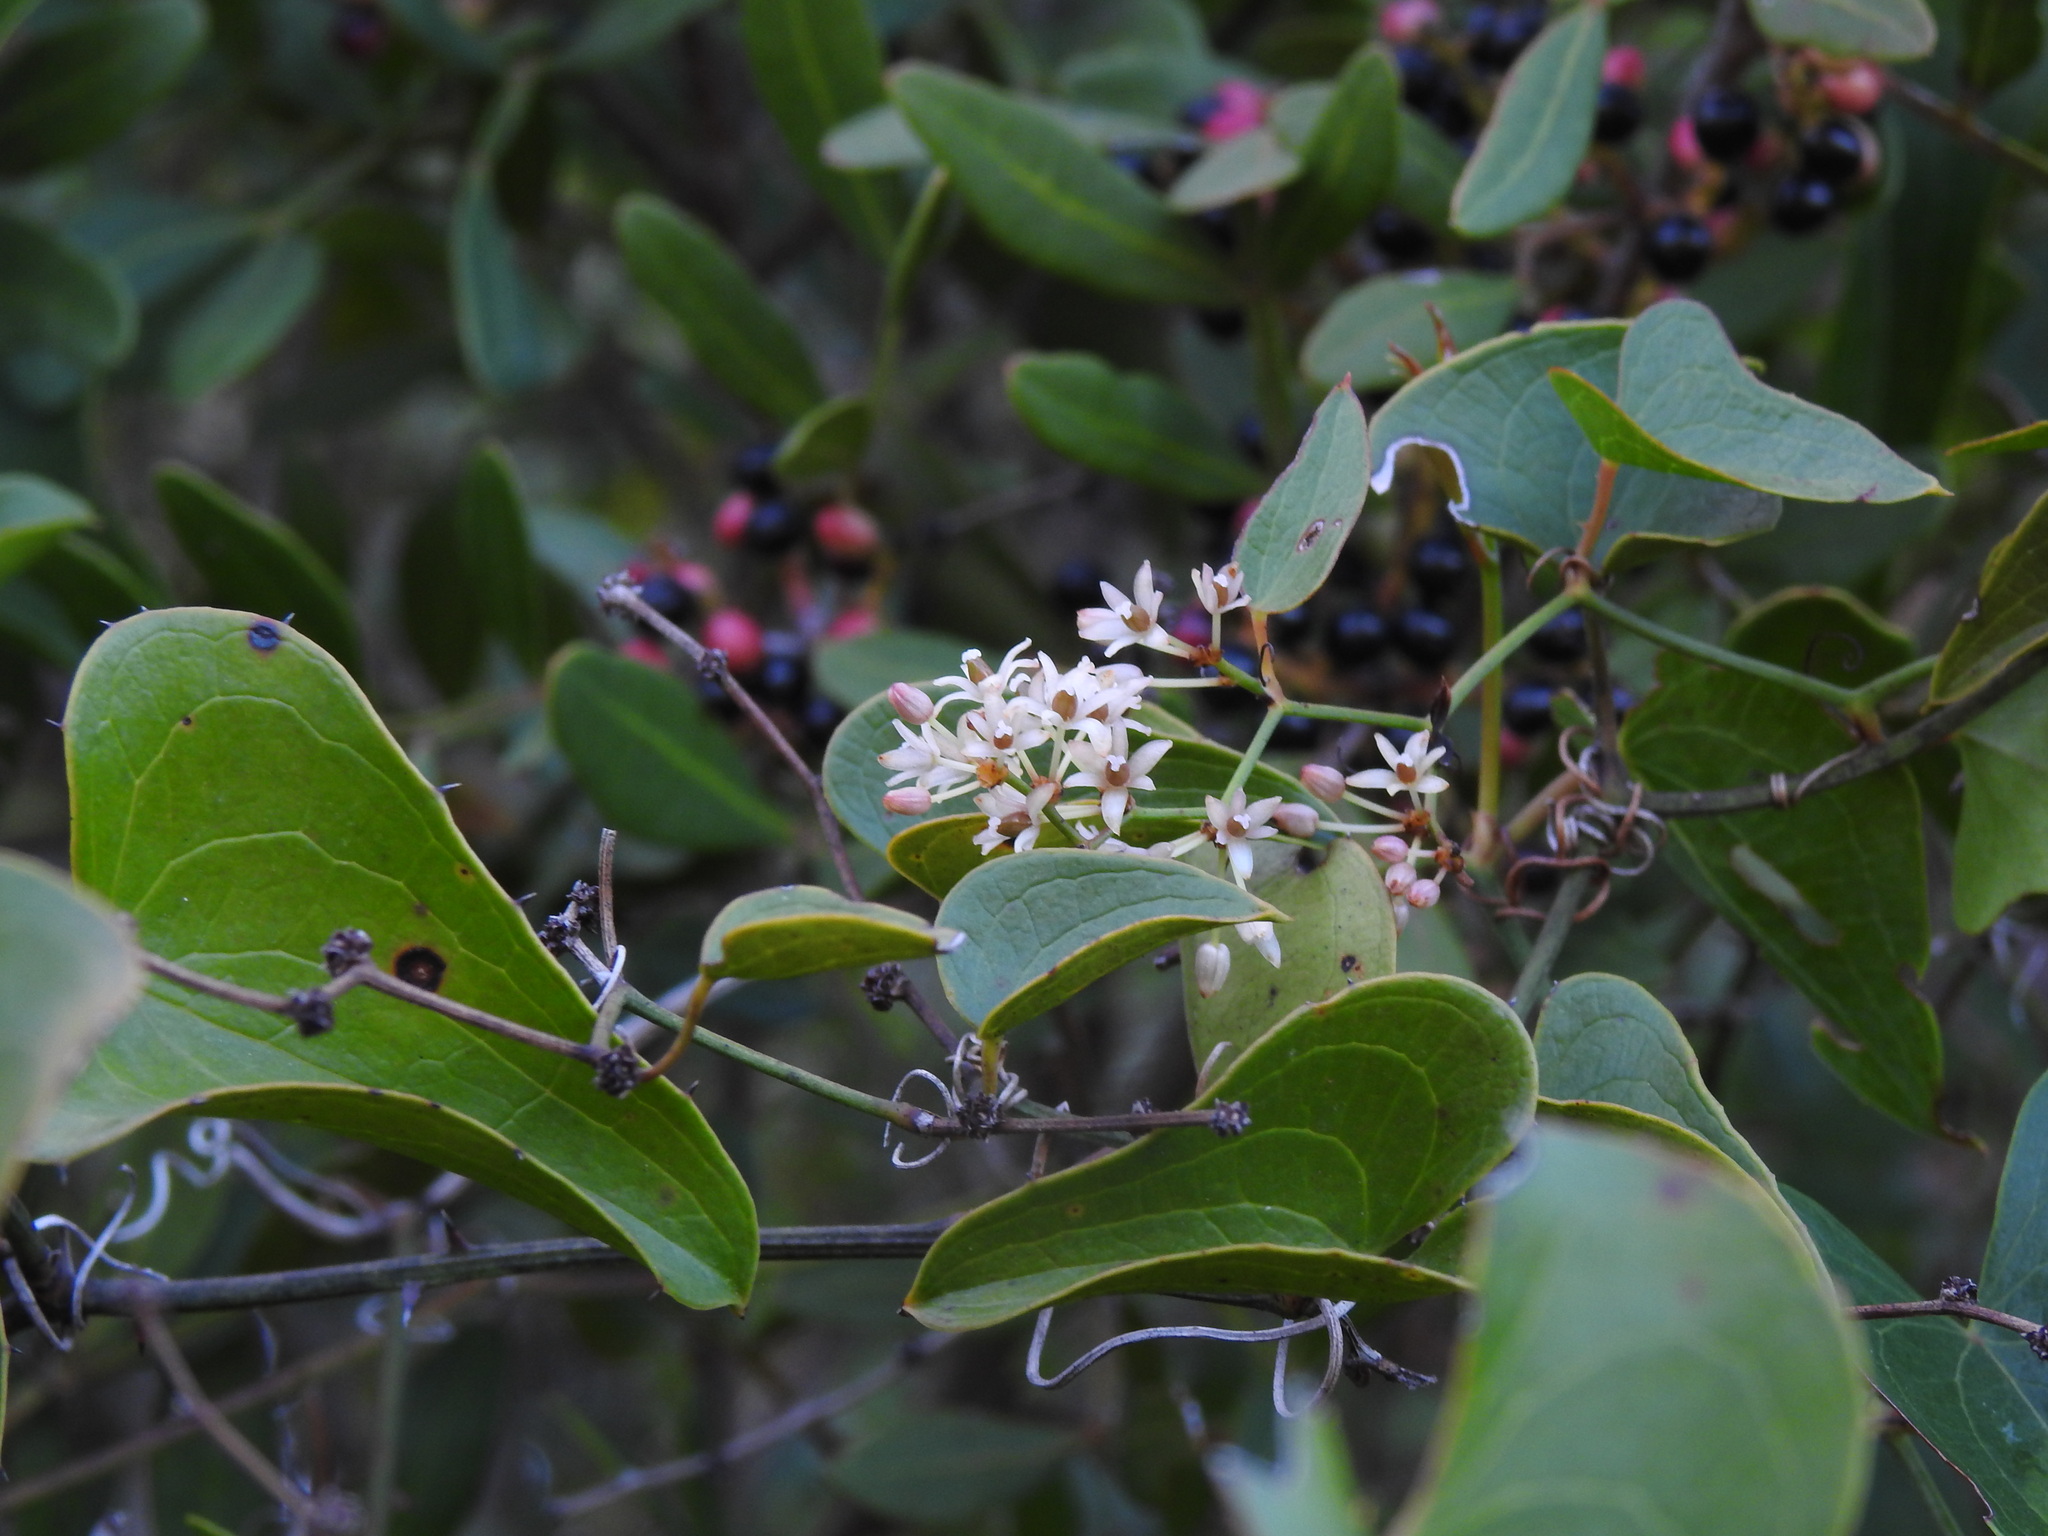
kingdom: Plantae
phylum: Tracheophyta
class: Liliopsida
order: Liliales
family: Smilacaceae
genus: Smilax
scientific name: Smilax aspera
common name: Common smilax
